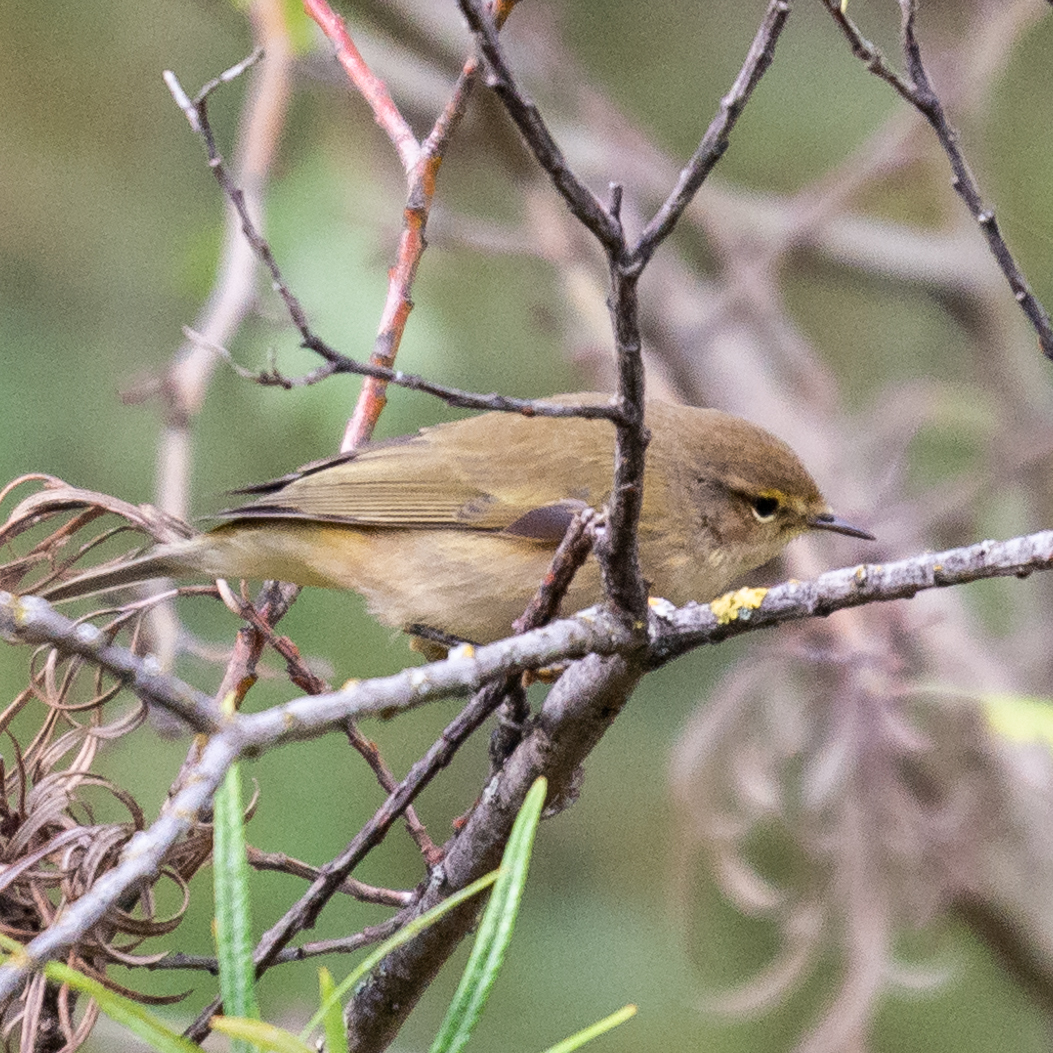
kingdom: Animalia
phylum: Chordata
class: Aves
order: Passeriformes
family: Phylloscopidae
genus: Phylloscopus
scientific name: Phylloscopus collybita
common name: Common chiffchaff
